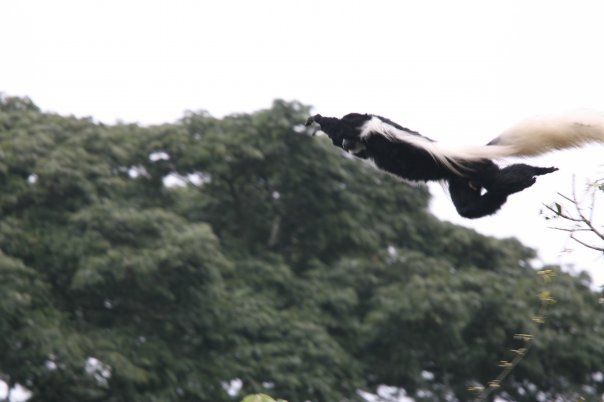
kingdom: Animalia
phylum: Chordata
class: Mammalia
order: Primates
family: Cercopithecidae
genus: Colobus
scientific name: Colobus caudatus
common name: Mount kilimanjaro guereza
